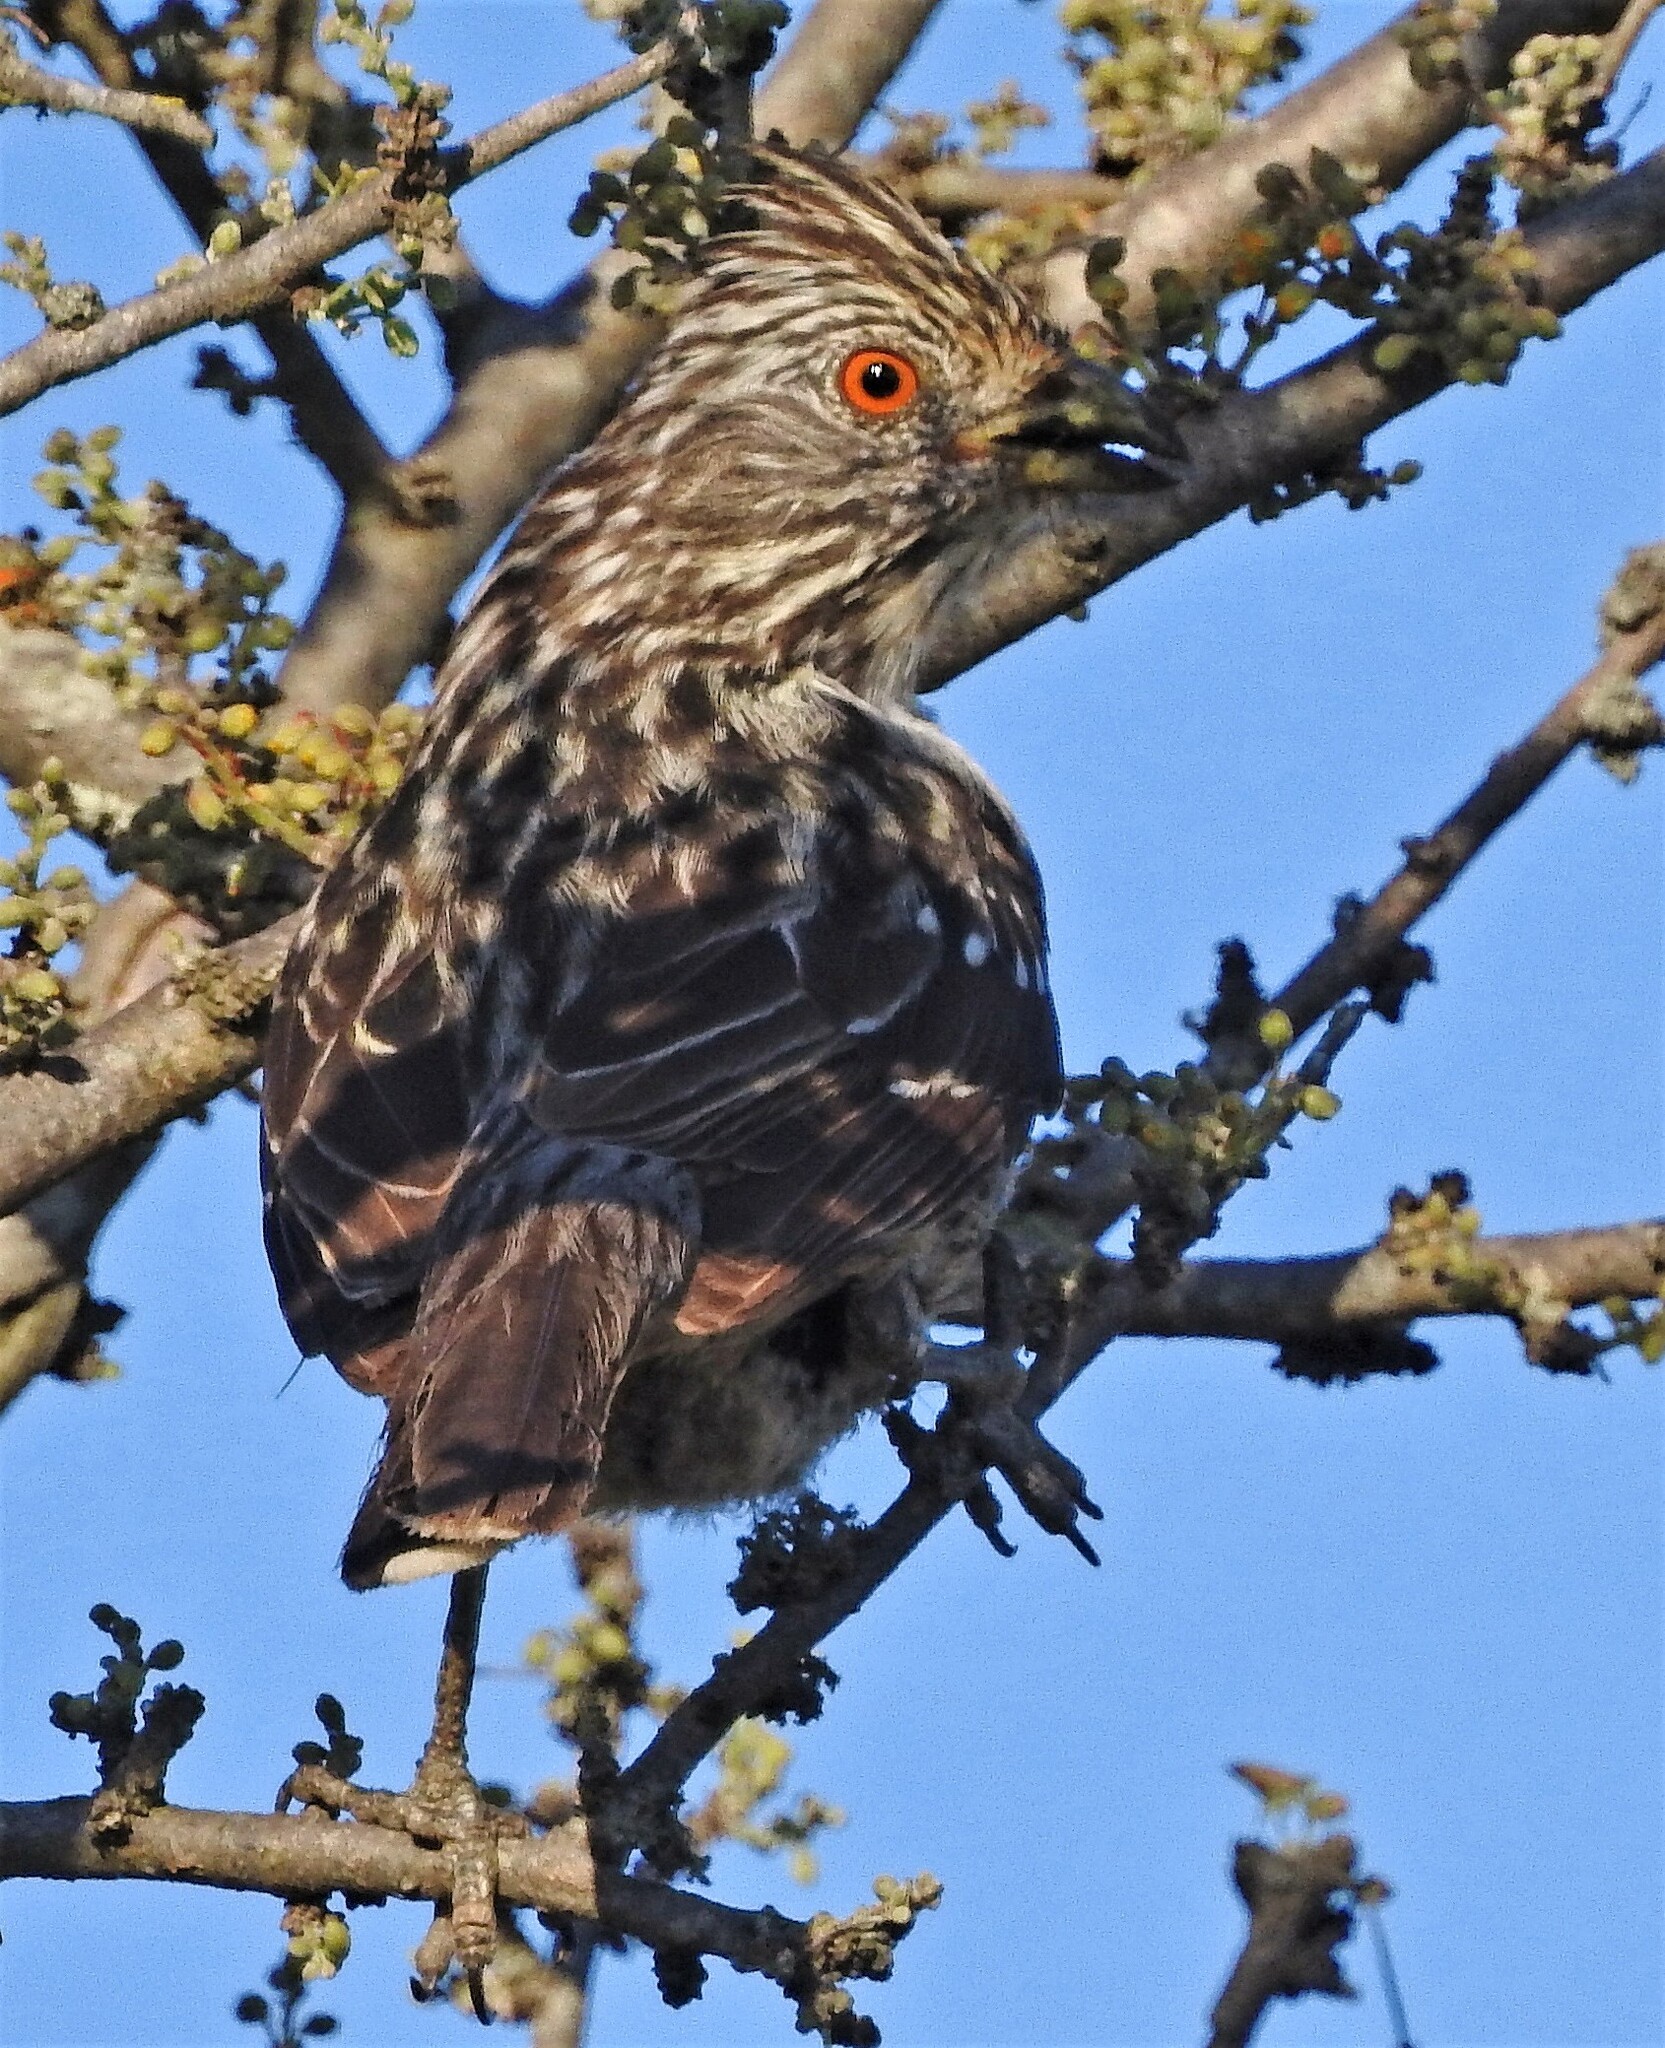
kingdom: Animalia
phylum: Chordata
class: Aves
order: Passeriformes
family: Cotingidae
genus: Phytotoma
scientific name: Phytotoma rutila
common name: White-tipped plantcutter
